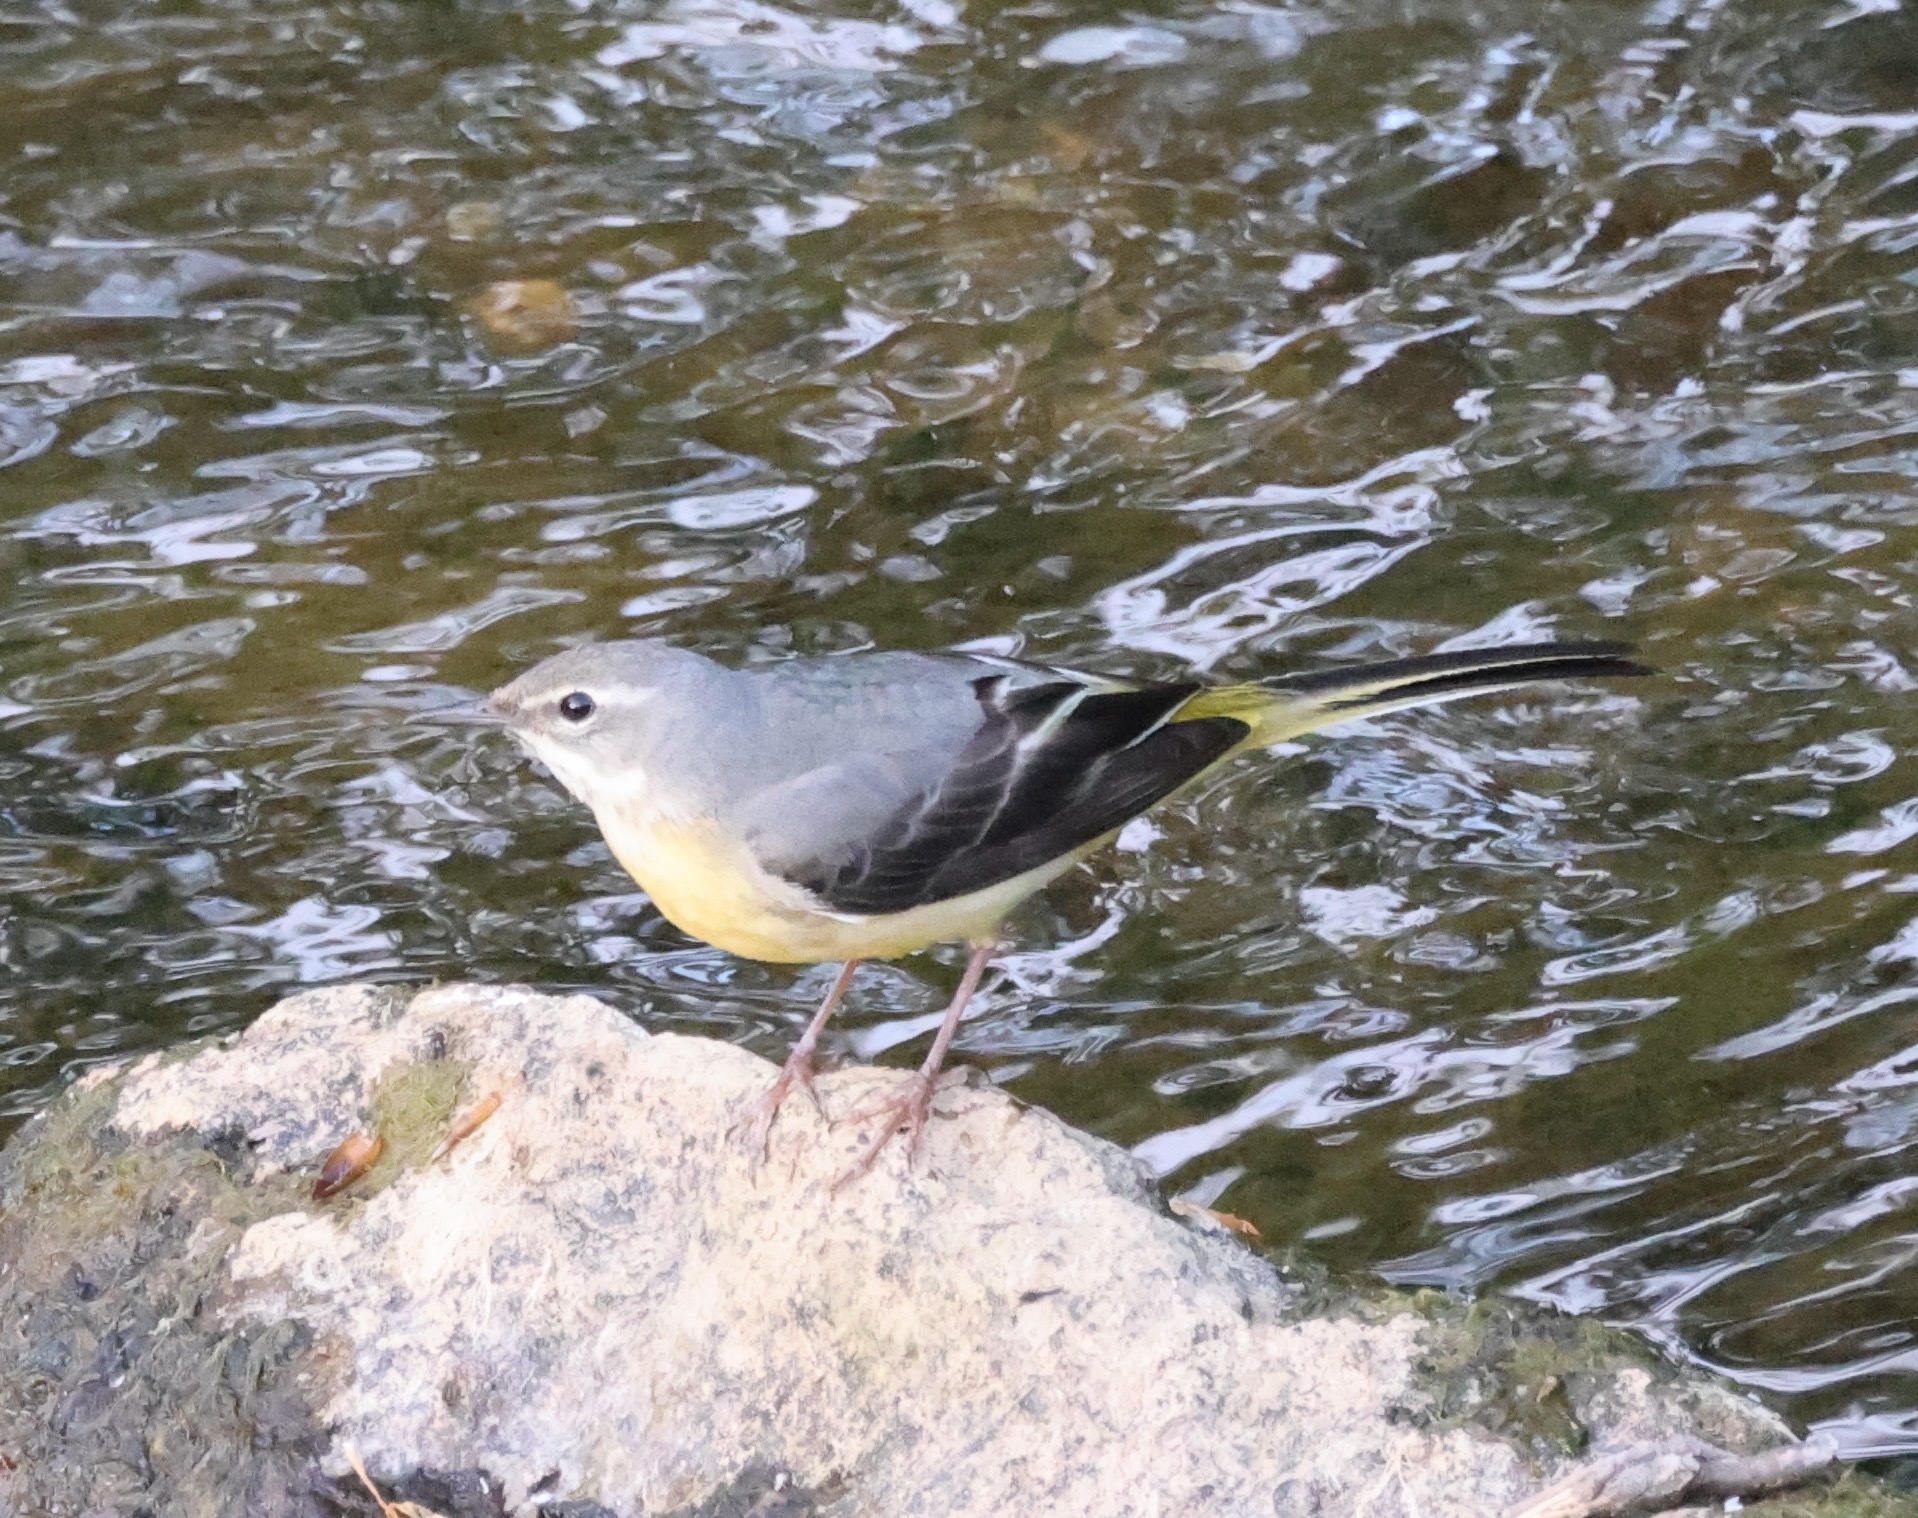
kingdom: Animalia
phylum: Chordata
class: Aves
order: Passeriformes
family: Motacillidae
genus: Motacilla
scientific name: Motacilla cinerea
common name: Grey wagtail
